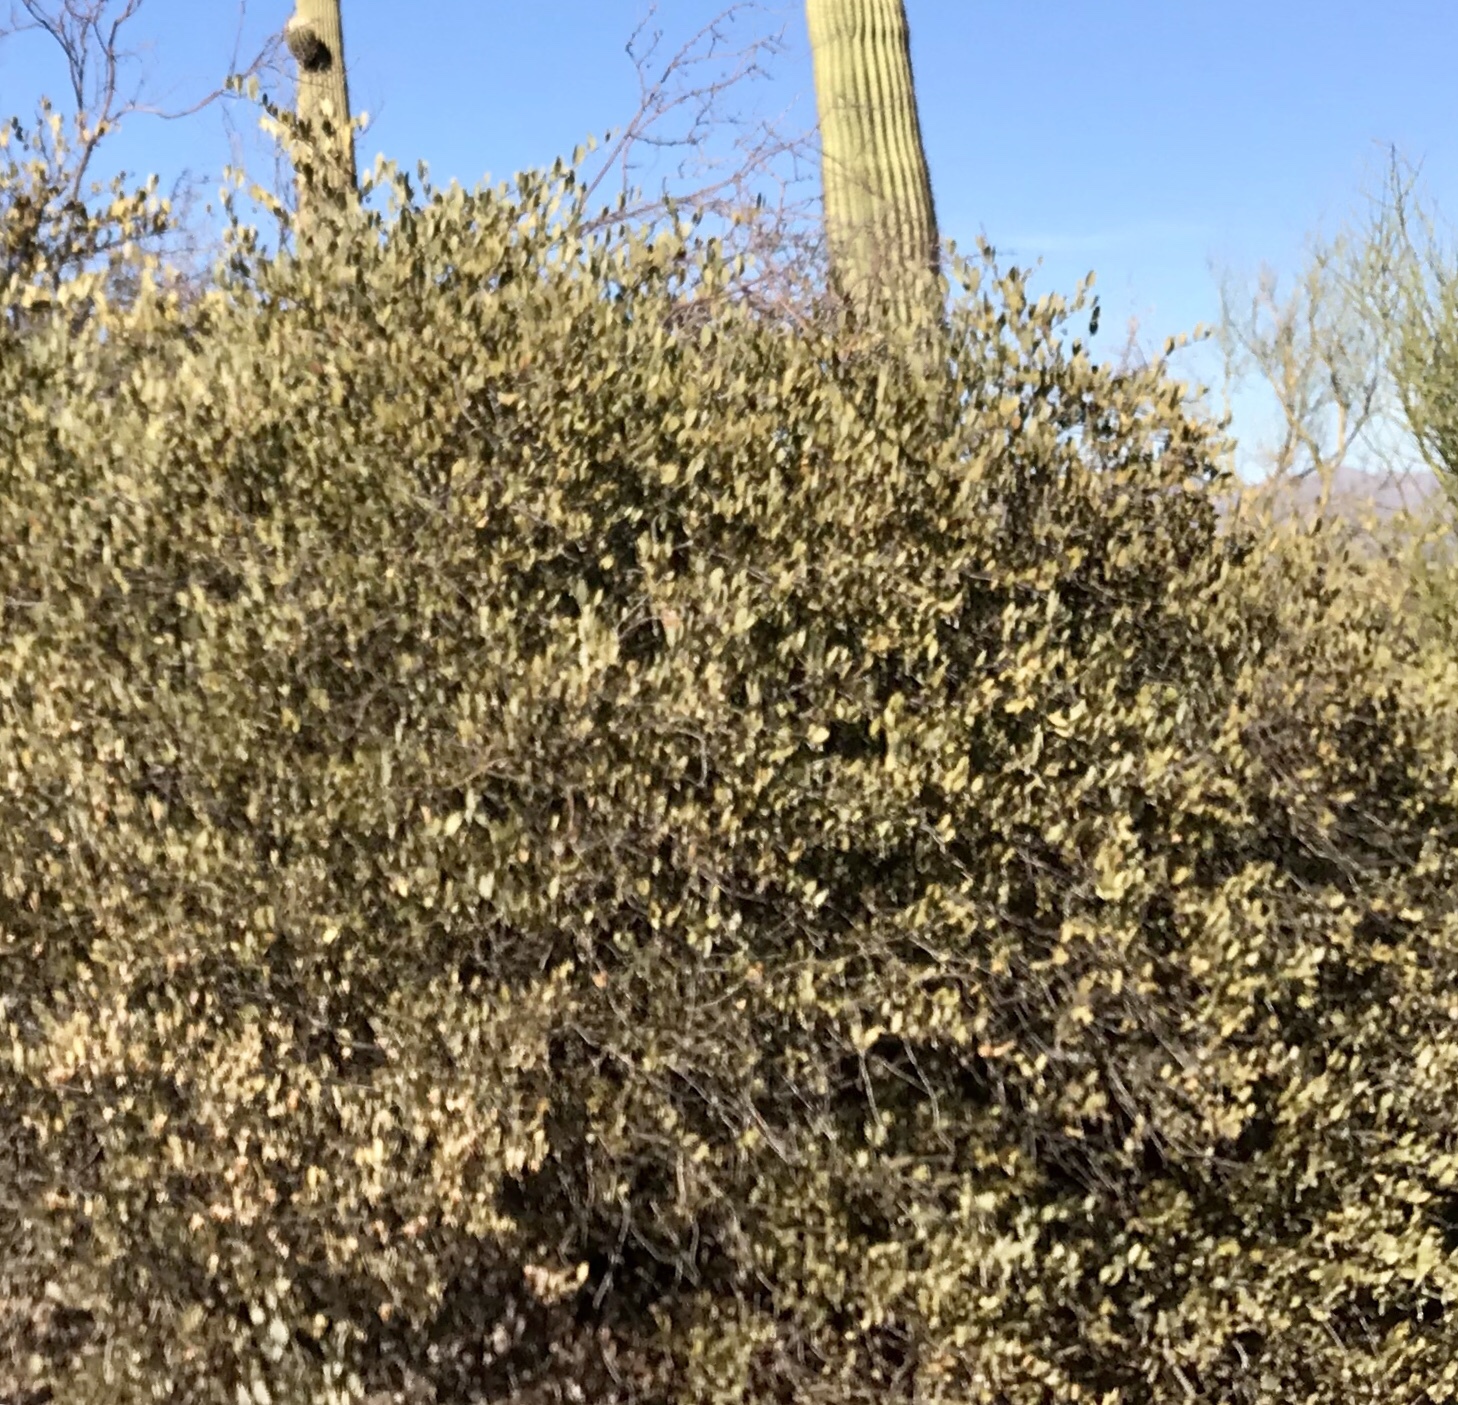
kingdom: Plantae
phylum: Tracheophyta
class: Magnoliopsida
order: Caryophyllales
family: Simmondsiaceae
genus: Simmondsia
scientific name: Simmondsia chinensis
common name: Jojoba
